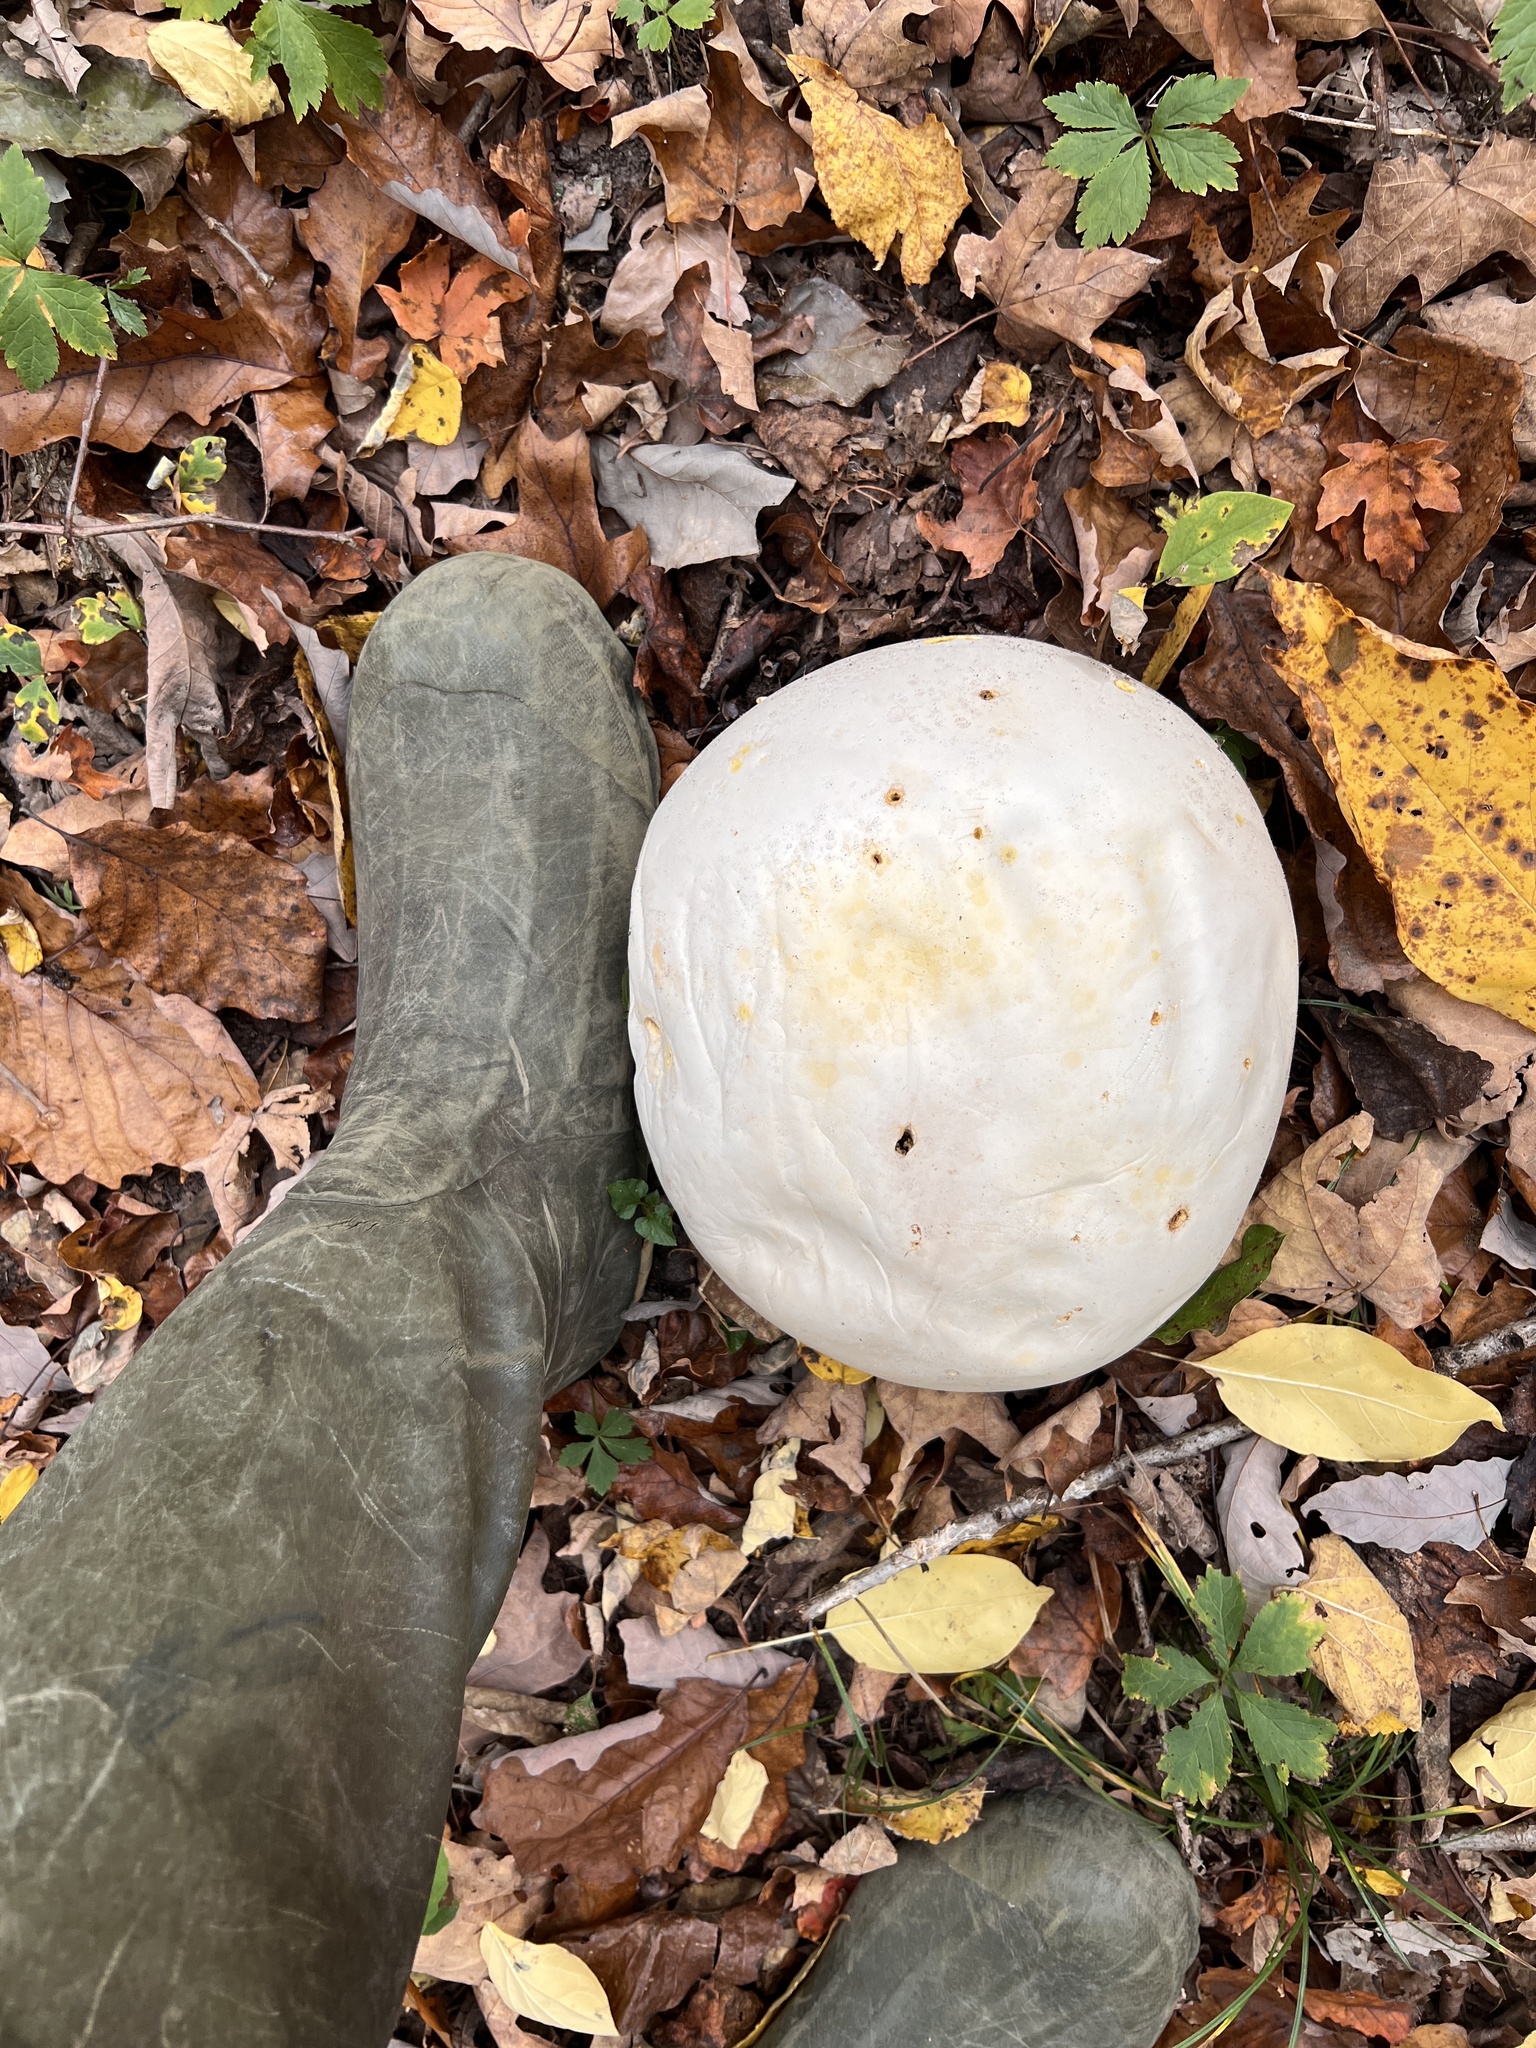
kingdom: Fungi
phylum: Basidiomycota
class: Agaricomycetes
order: Agaricales
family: Lycoperdaceae
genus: Calvatia
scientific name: Calvatia gigantea
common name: Giant puffball
